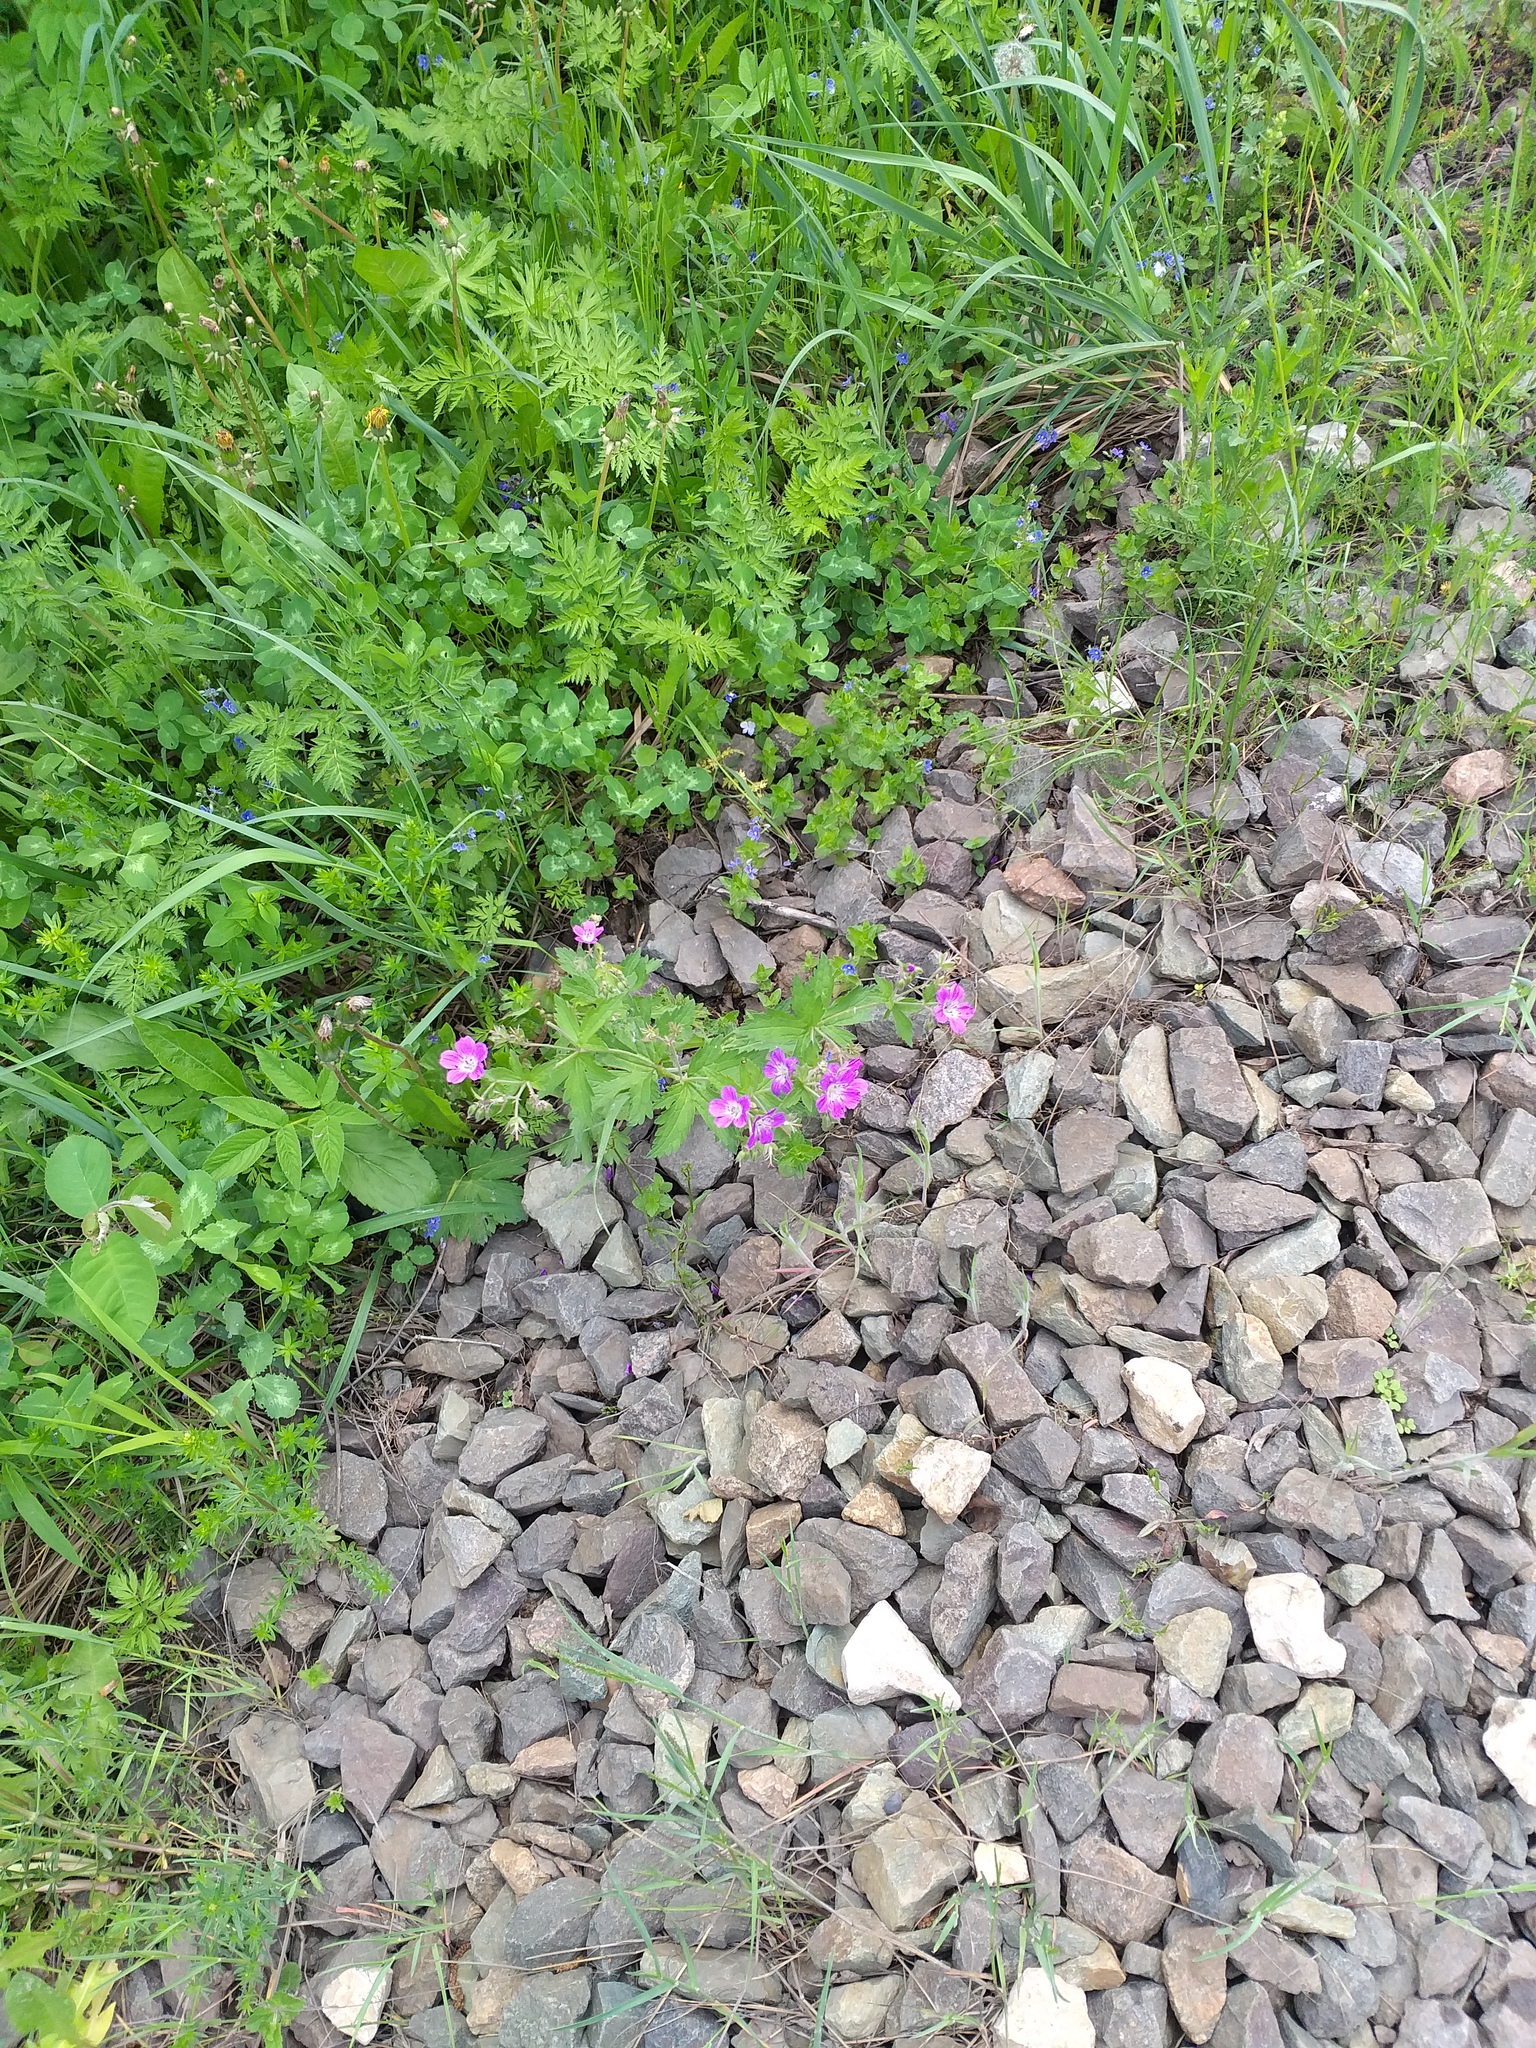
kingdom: Plantae
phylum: Tracheophyta
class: Magnoliopsida
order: Geraniales
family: Geraniaceae
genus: Geranium
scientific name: Geranium sylvaticum
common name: Wood crane's-bill
